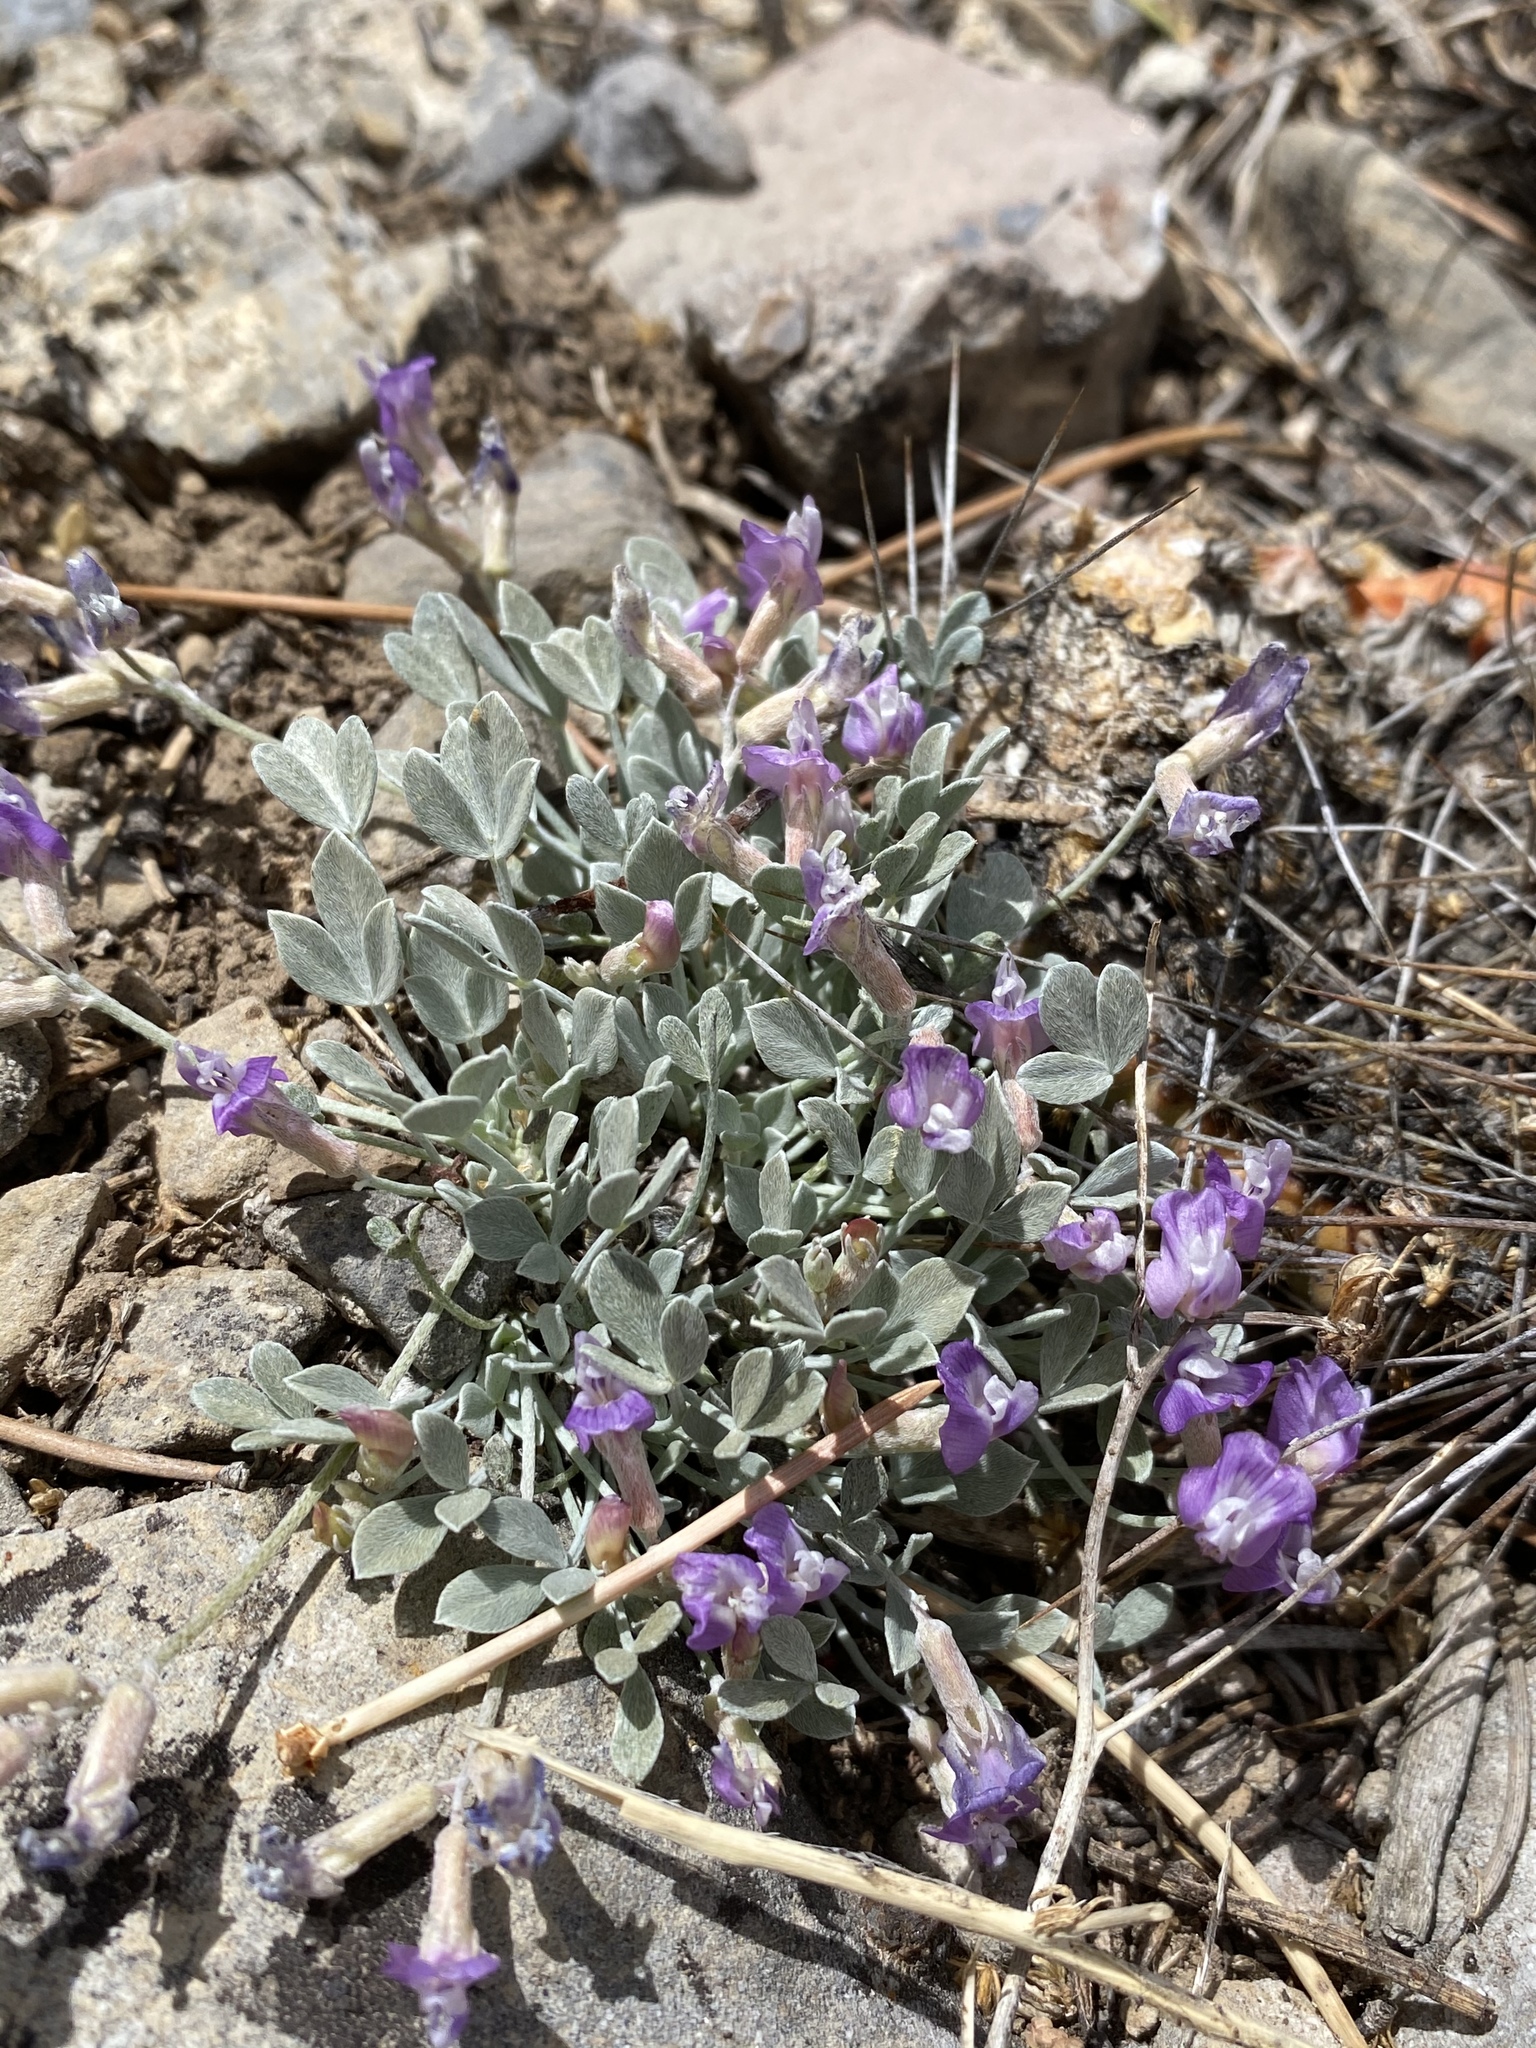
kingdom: Plantae
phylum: Tracheophyta
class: Magnoliopsida
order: Fabales
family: Fabaceae
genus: Astragalus
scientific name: Astragalus calycosus
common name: King's milkvetch
